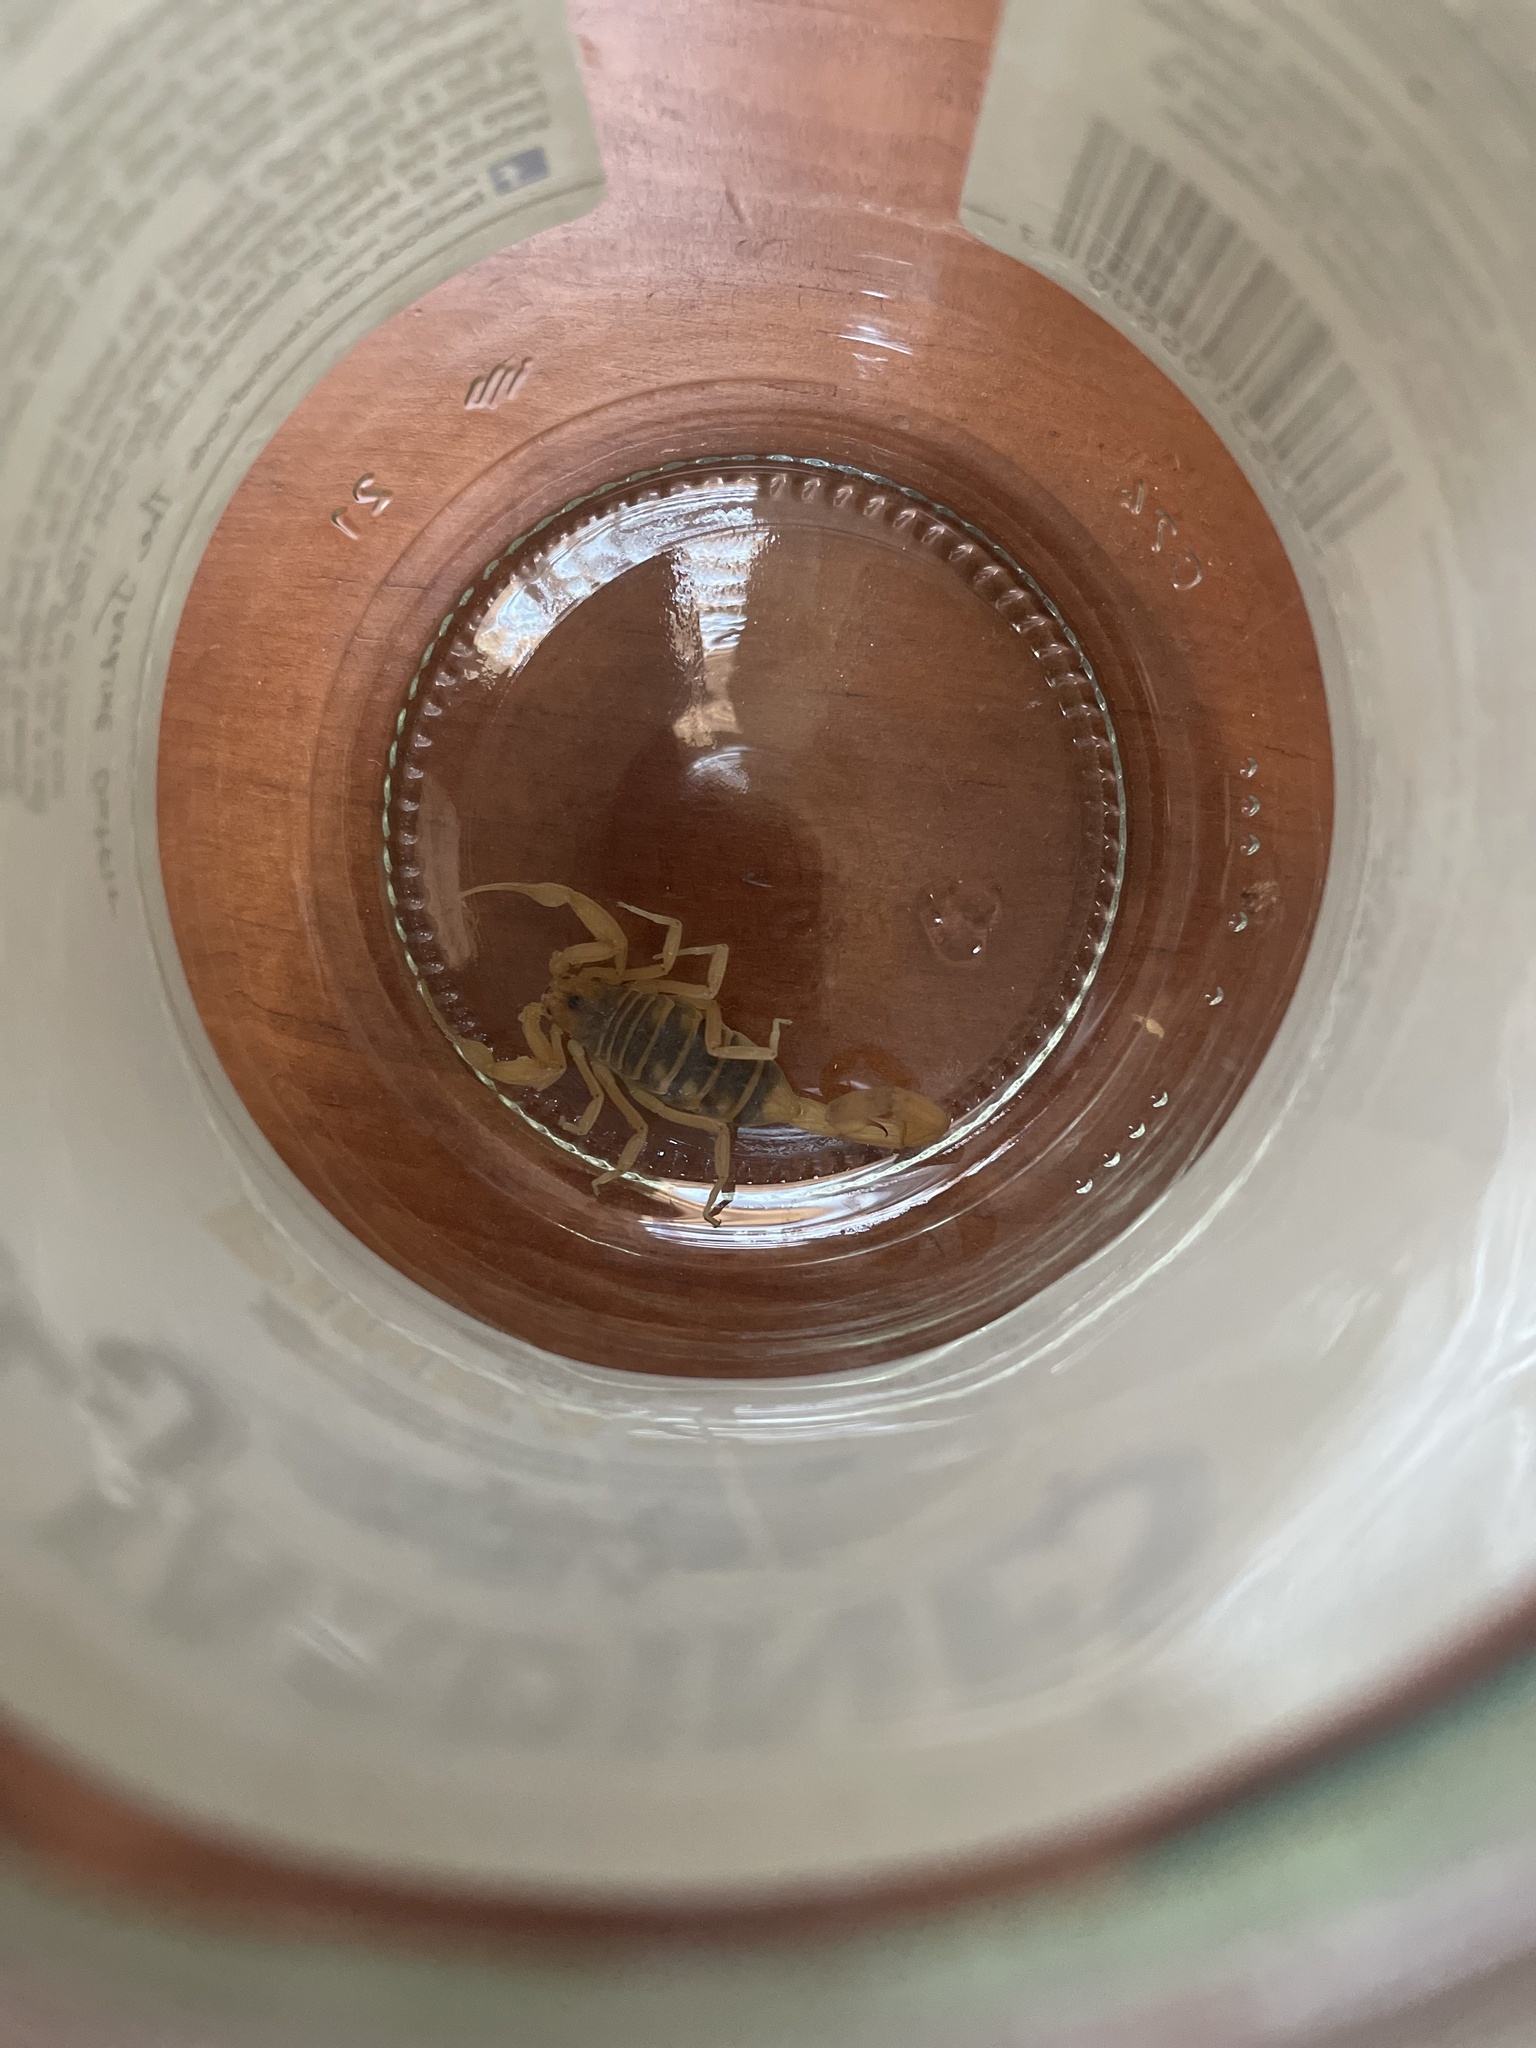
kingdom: Animalia
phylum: Arthropoda
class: Arachnida
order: Scorpiones
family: Buthidae
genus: Centruroides
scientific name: Centruroides sculpturatus
